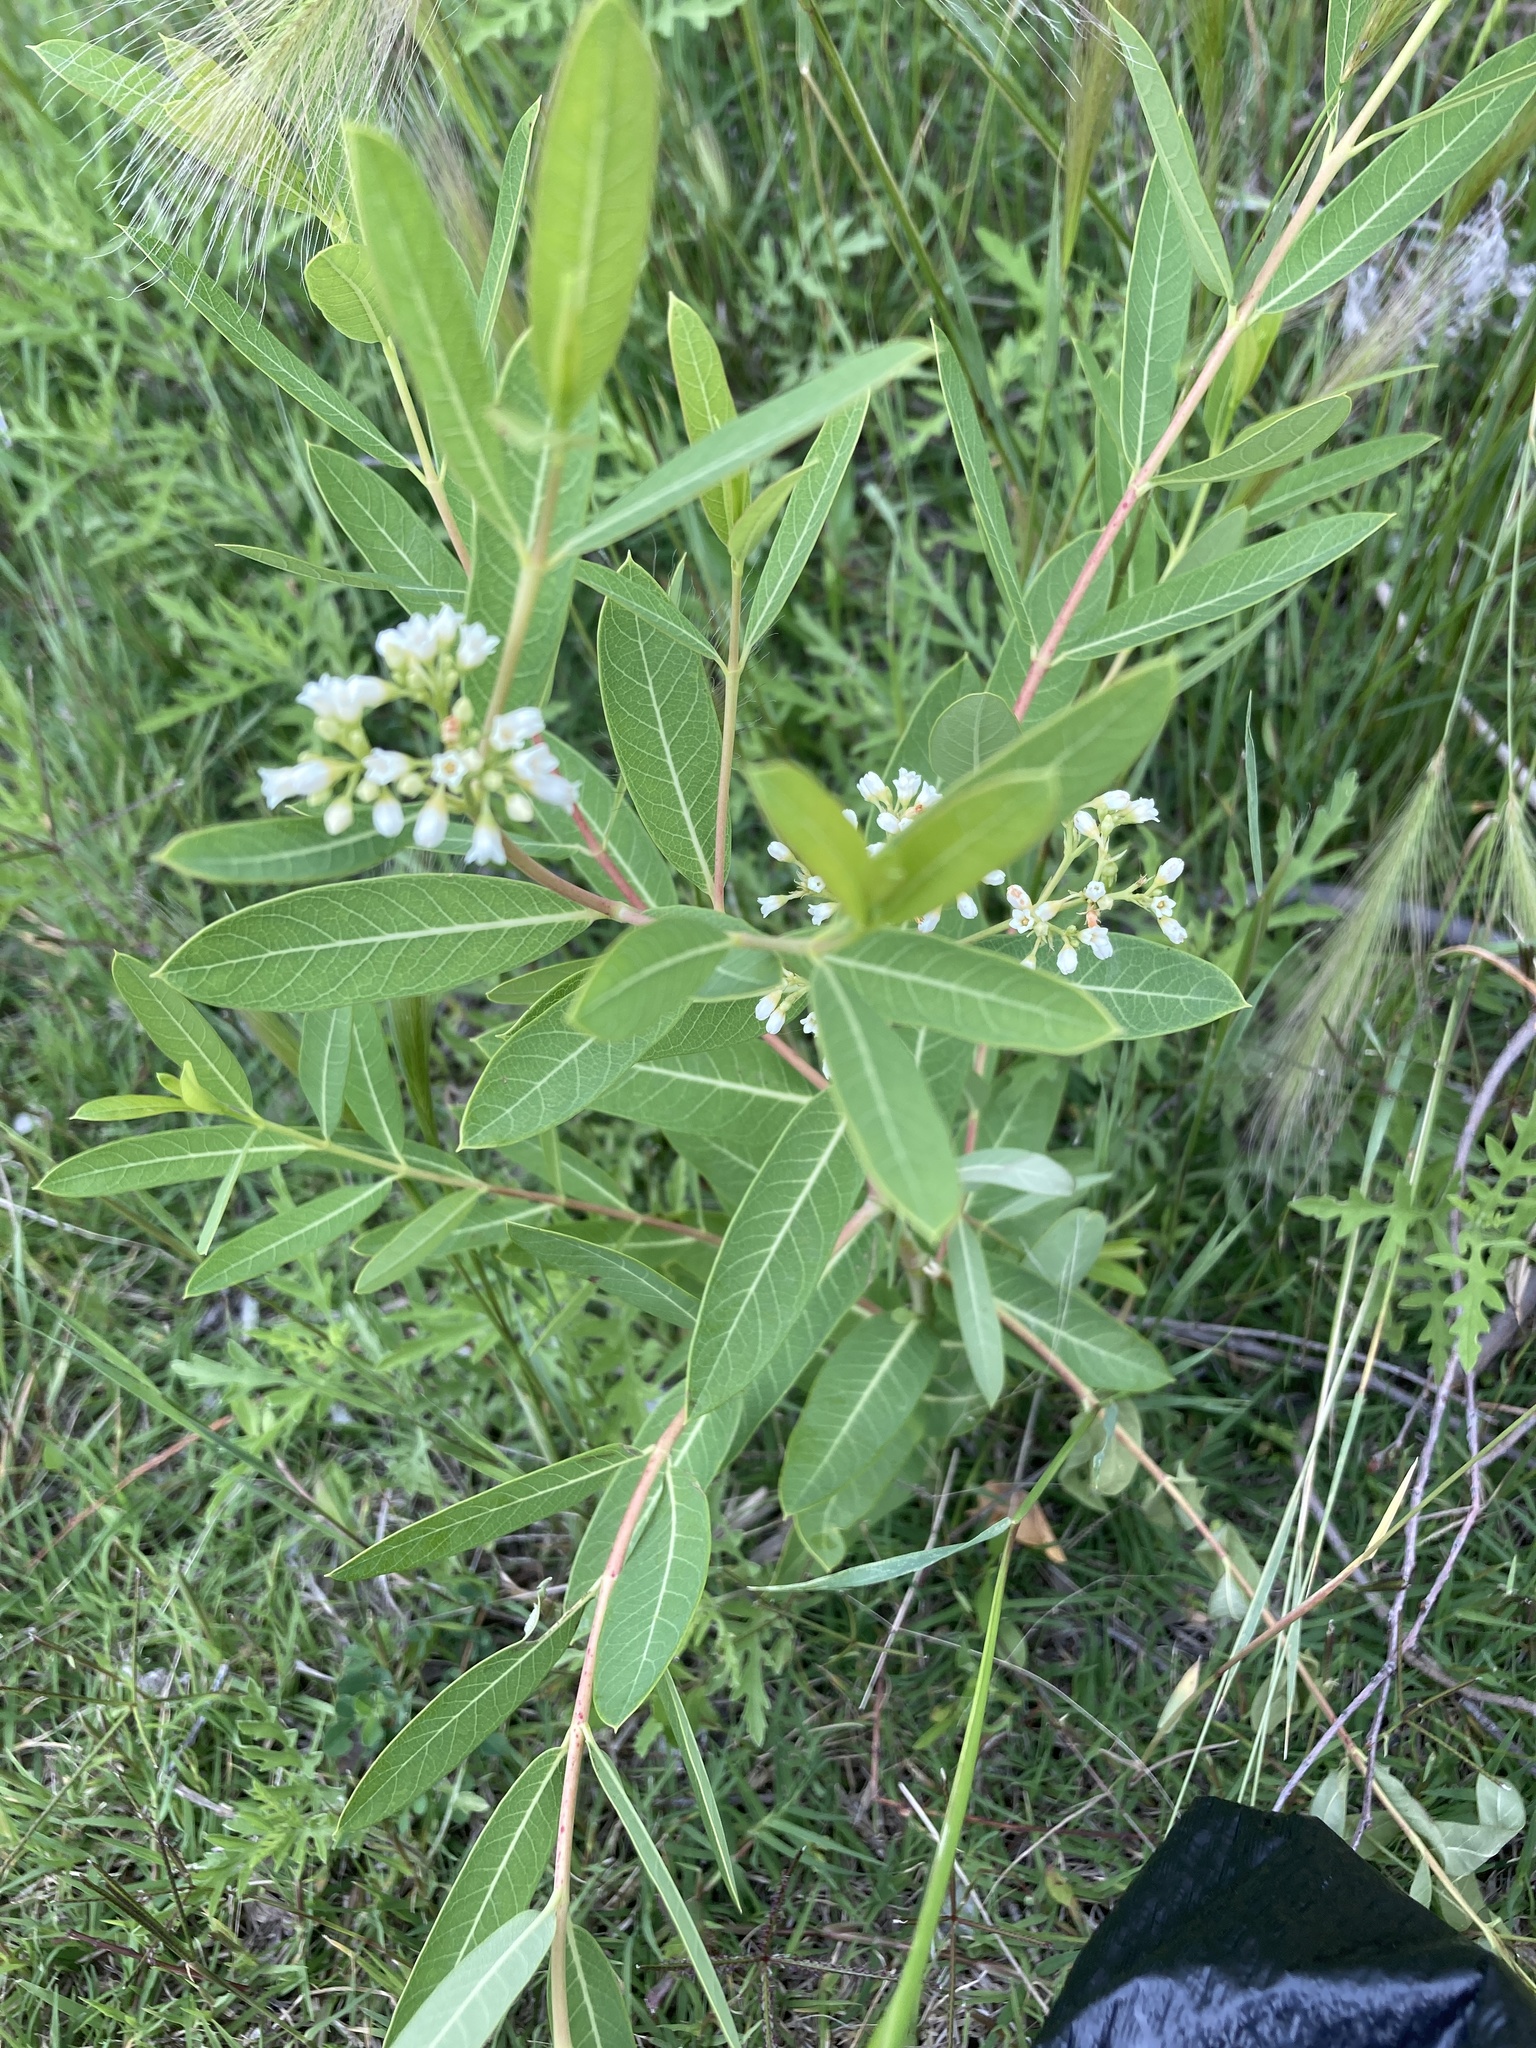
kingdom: Plantae
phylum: Tracheophyta
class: Magnoliopsida
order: Gentianales
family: Apocynaceae
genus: Apocynum
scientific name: Apocynum cannabinum
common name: Hemp dogbane
